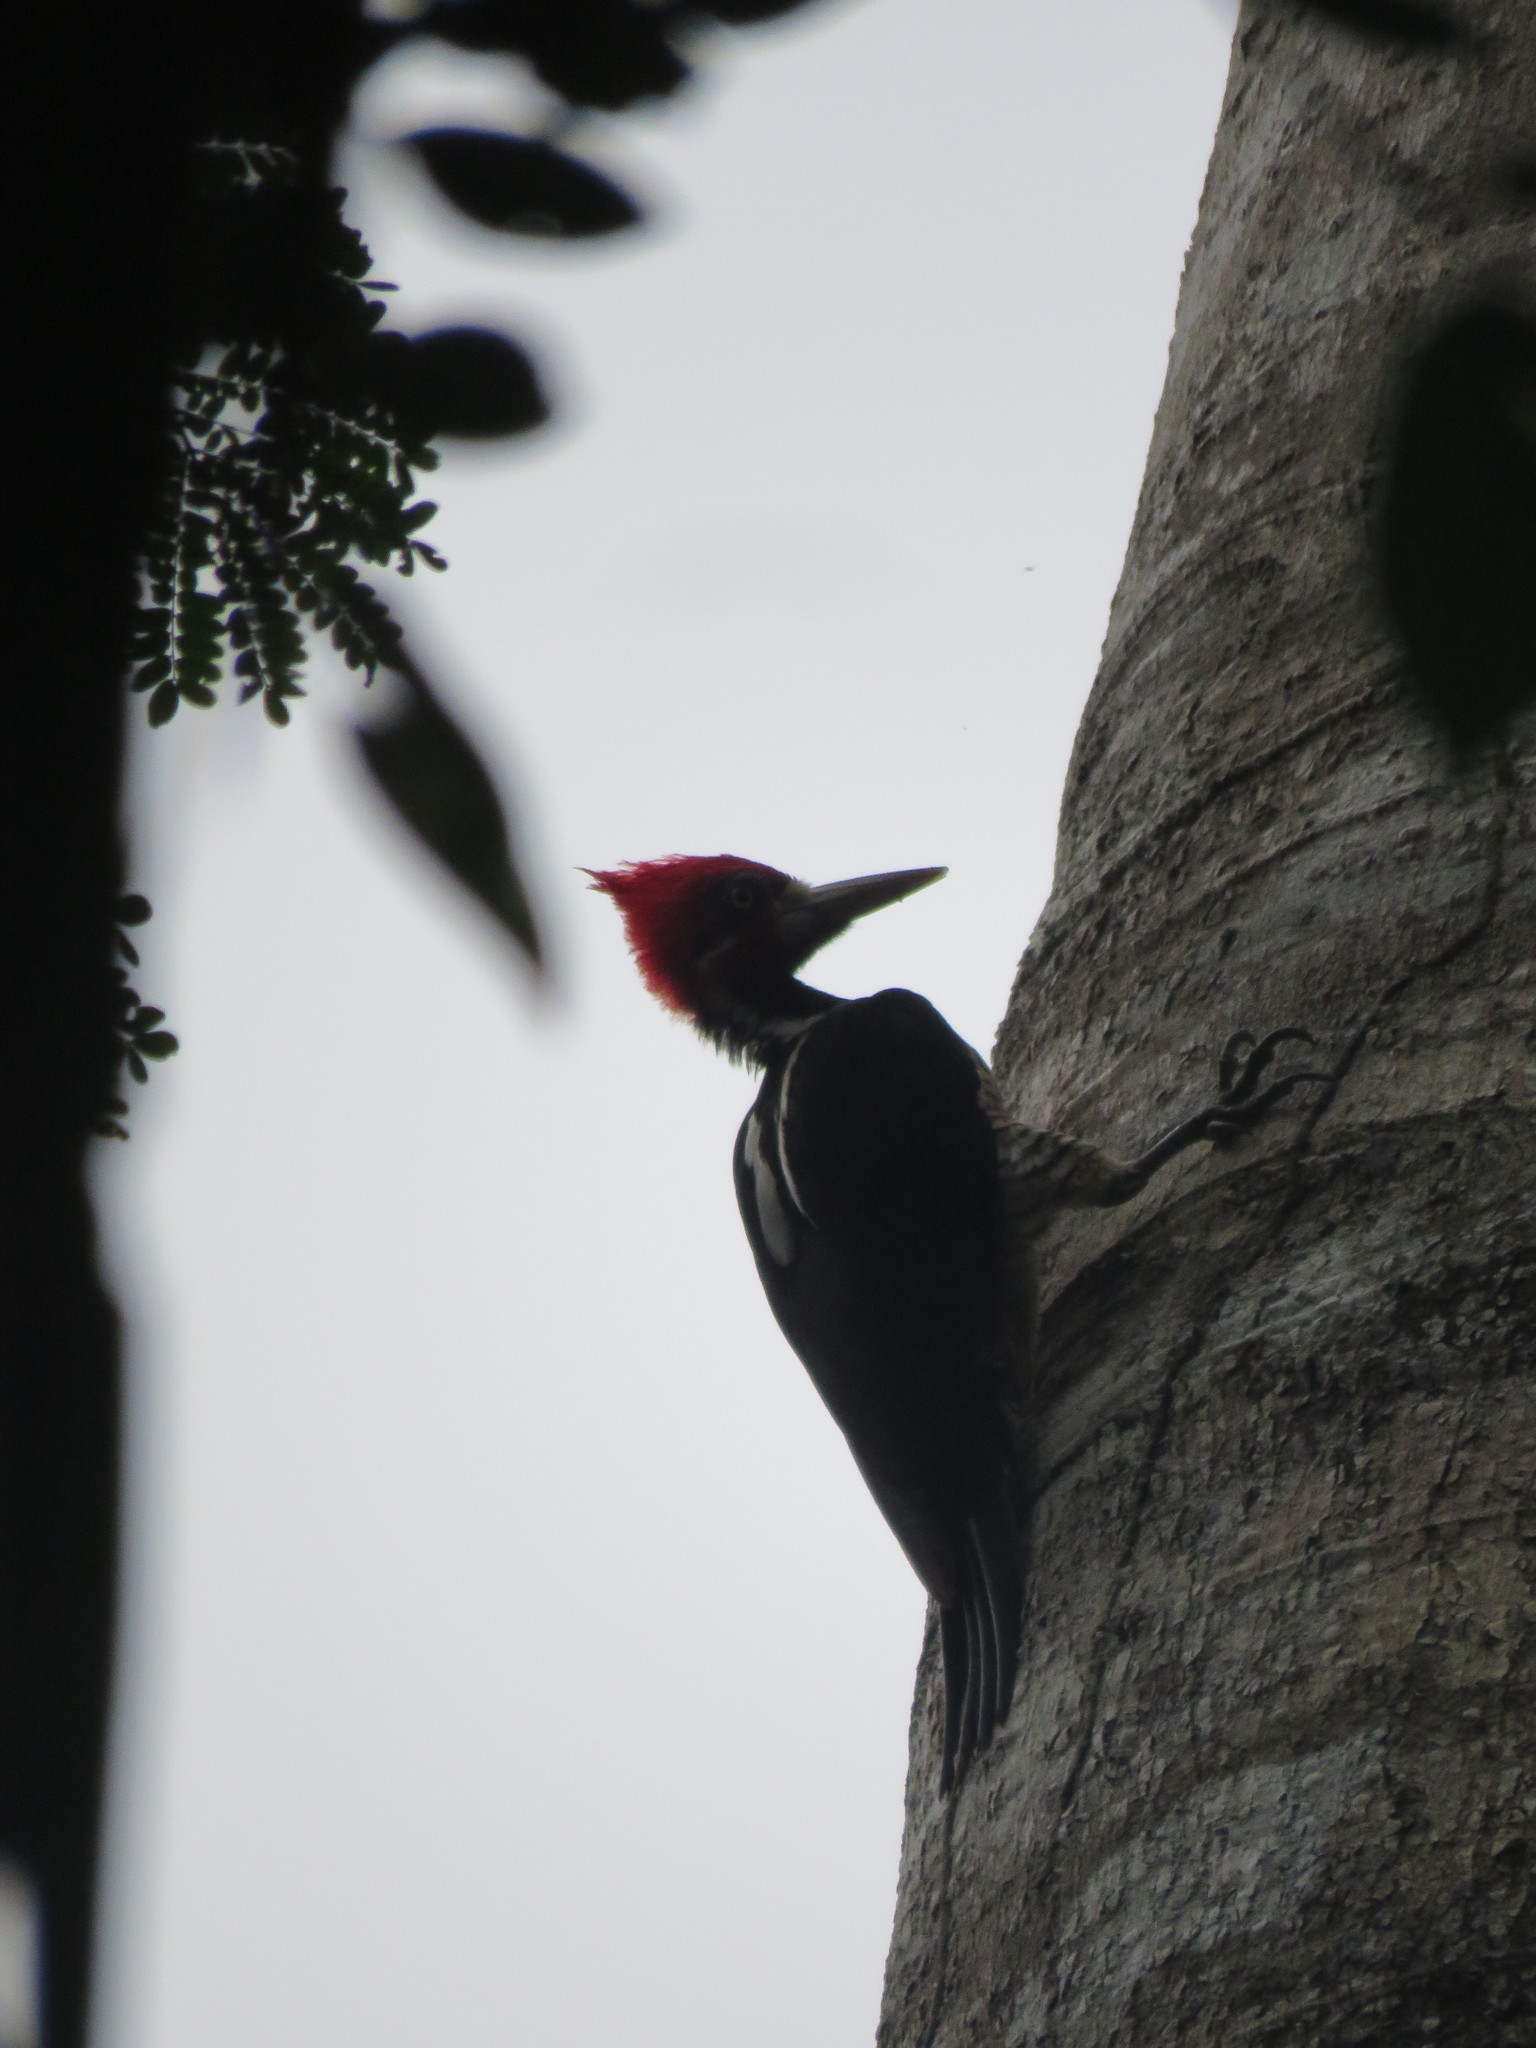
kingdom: Animalia
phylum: Chordata
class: Aves
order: Piciformes
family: Picidae
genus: Campephilus
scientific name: Campephilus melanoleucos
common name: Crimson-crested woodpecker
